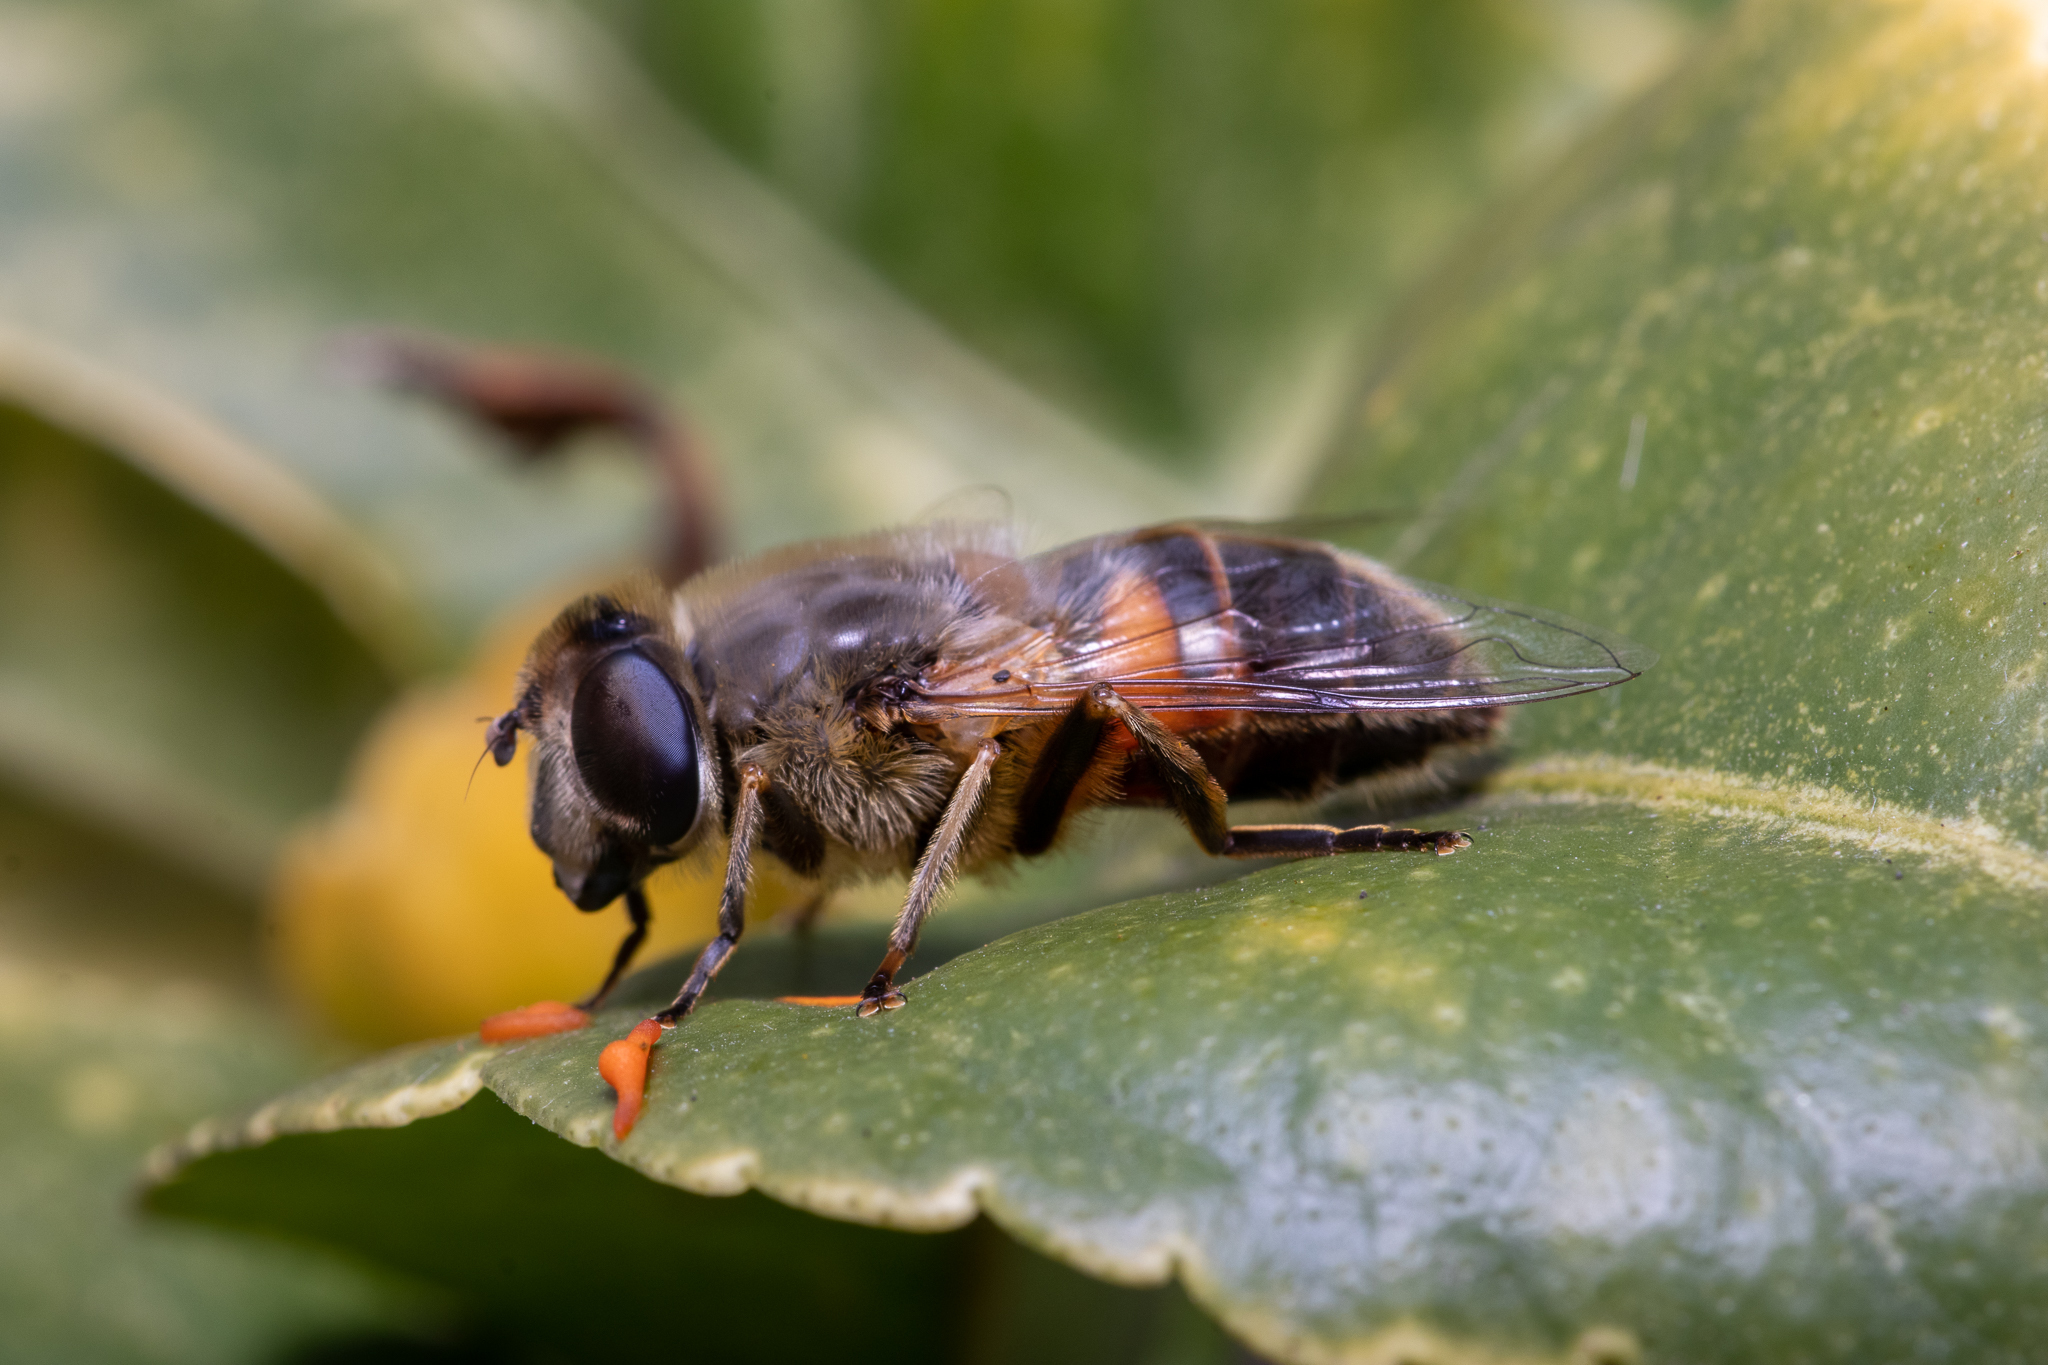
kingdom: Animalia
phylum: Arthropoda
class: Insecta
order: Diptera
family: Syrphidae
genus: Eristalis
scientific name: Eristalis tenax
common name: Drone fly
